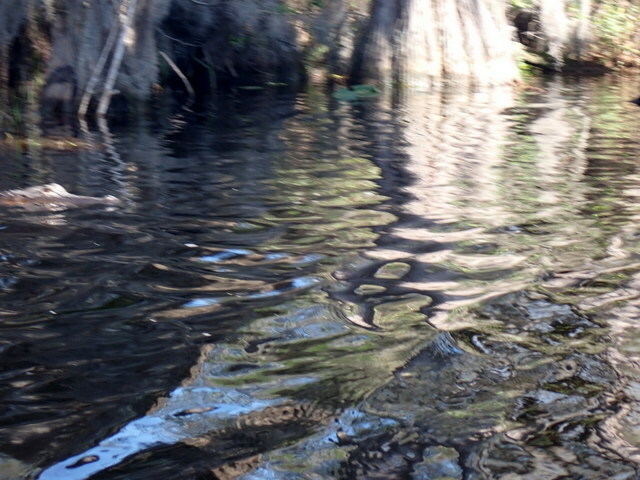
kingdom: Animalia
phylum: Chordata
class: Crocodylia
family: Alligatoridae
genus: Alligator
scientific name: Alligator mississippiensis
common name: American alligator
